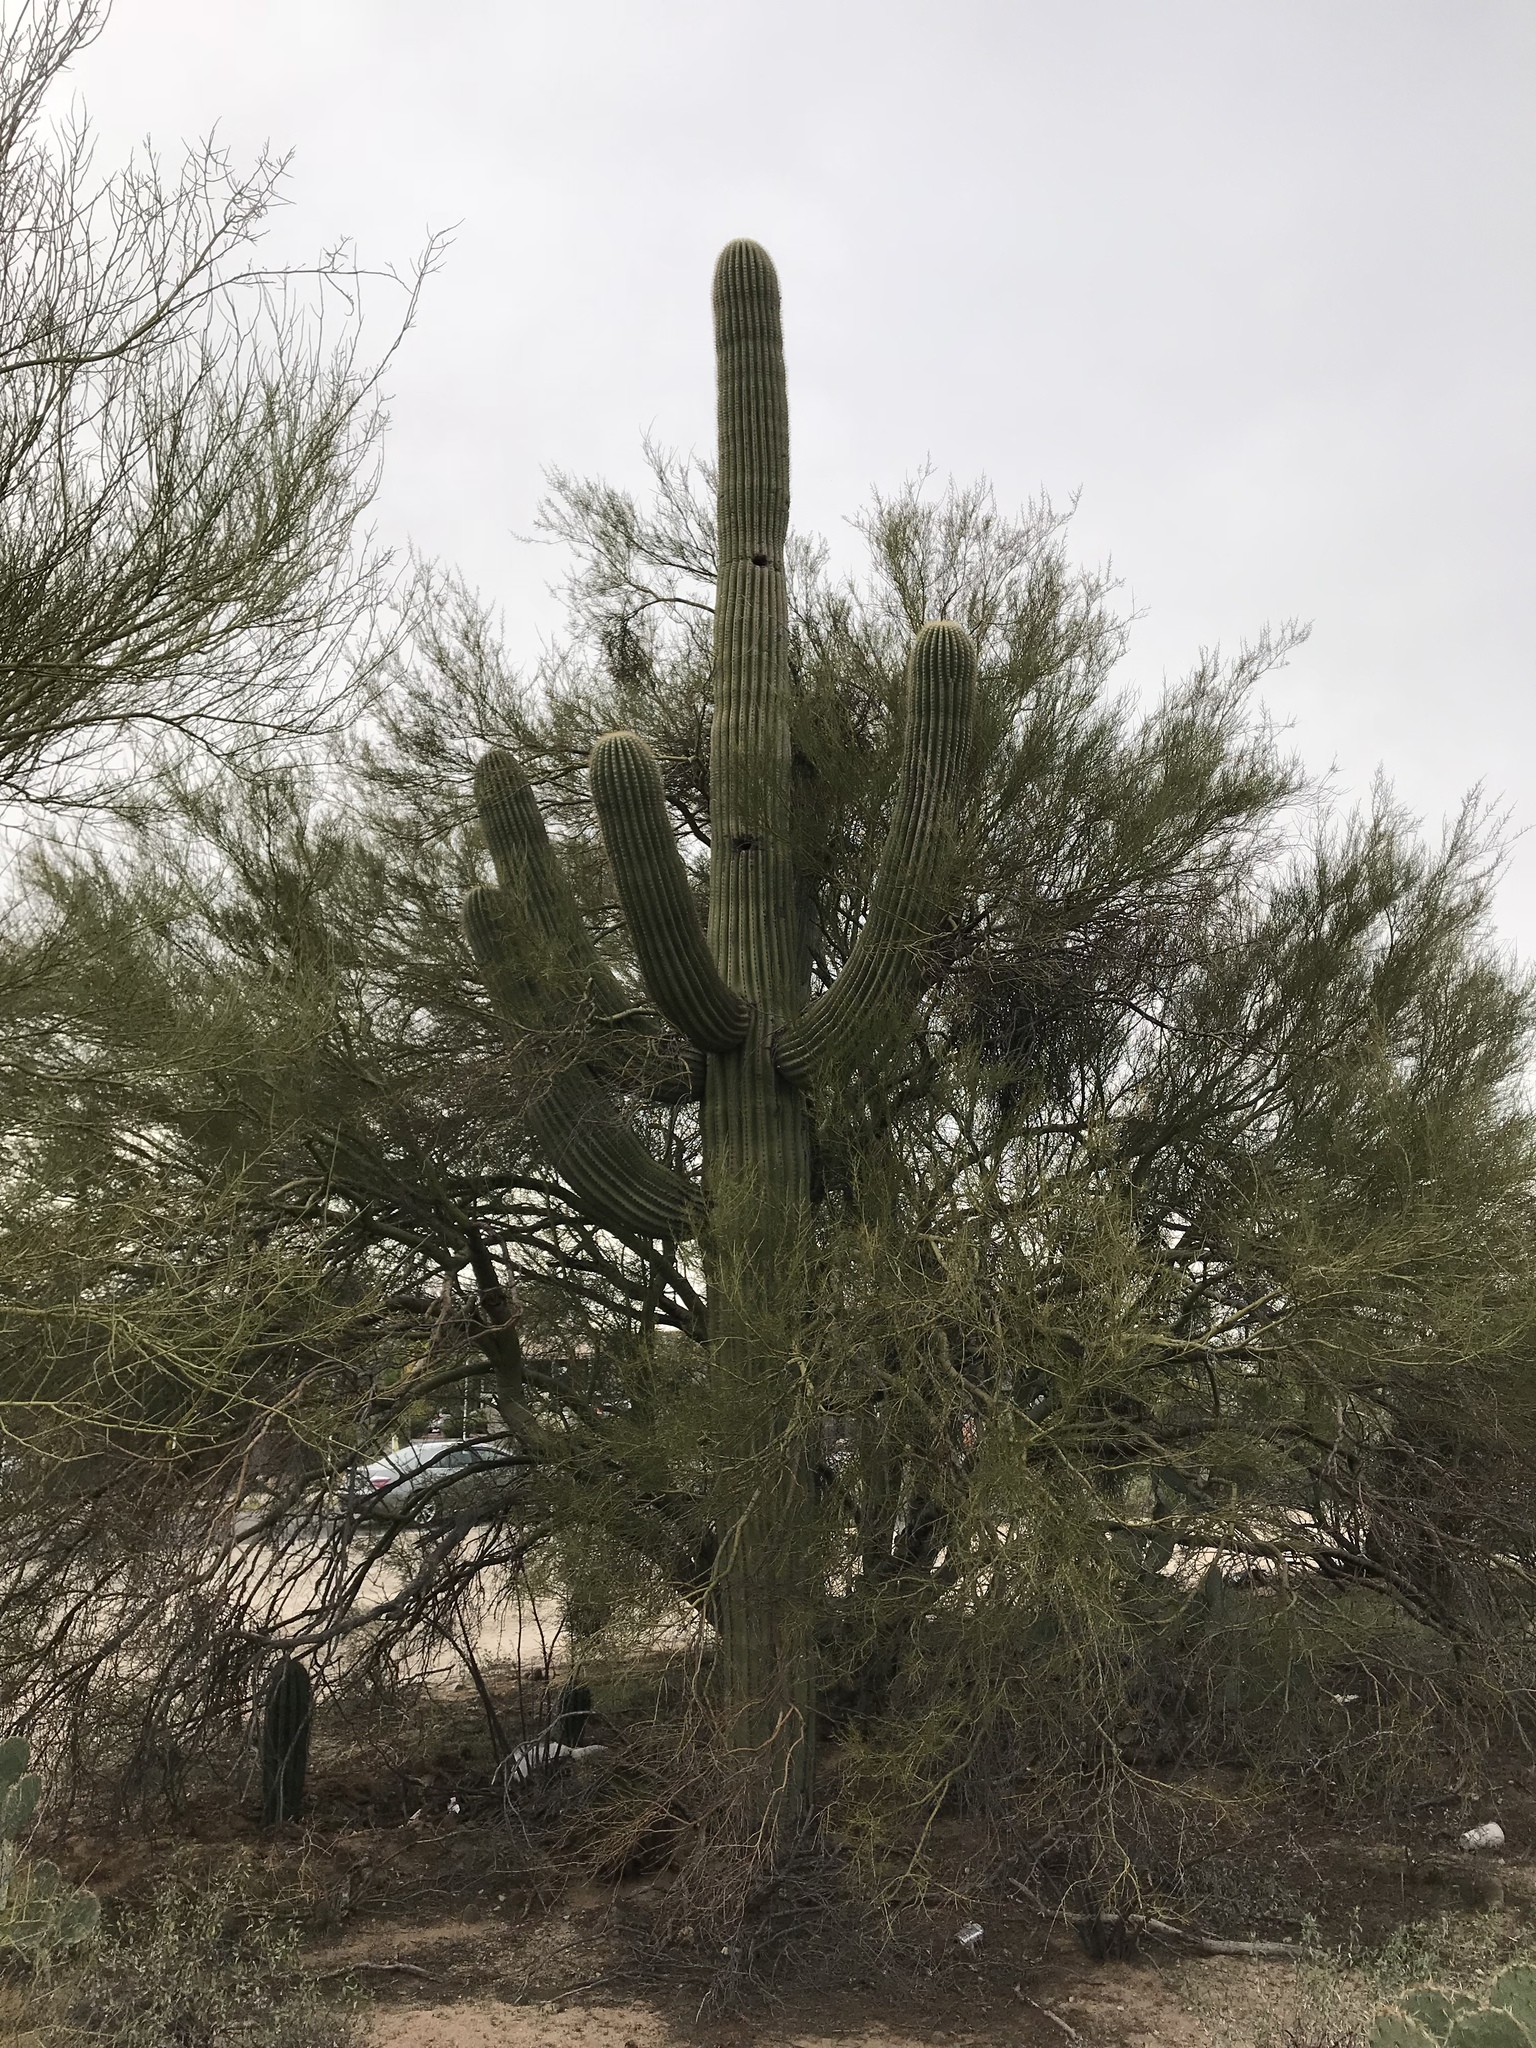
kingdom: Plantae
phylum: Tracheophyta
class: Magnoliopsida
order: Caryophyllales
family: Cactaceae
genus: Carnegiea
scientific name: Carnegiea gigantea
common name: Saguaro
